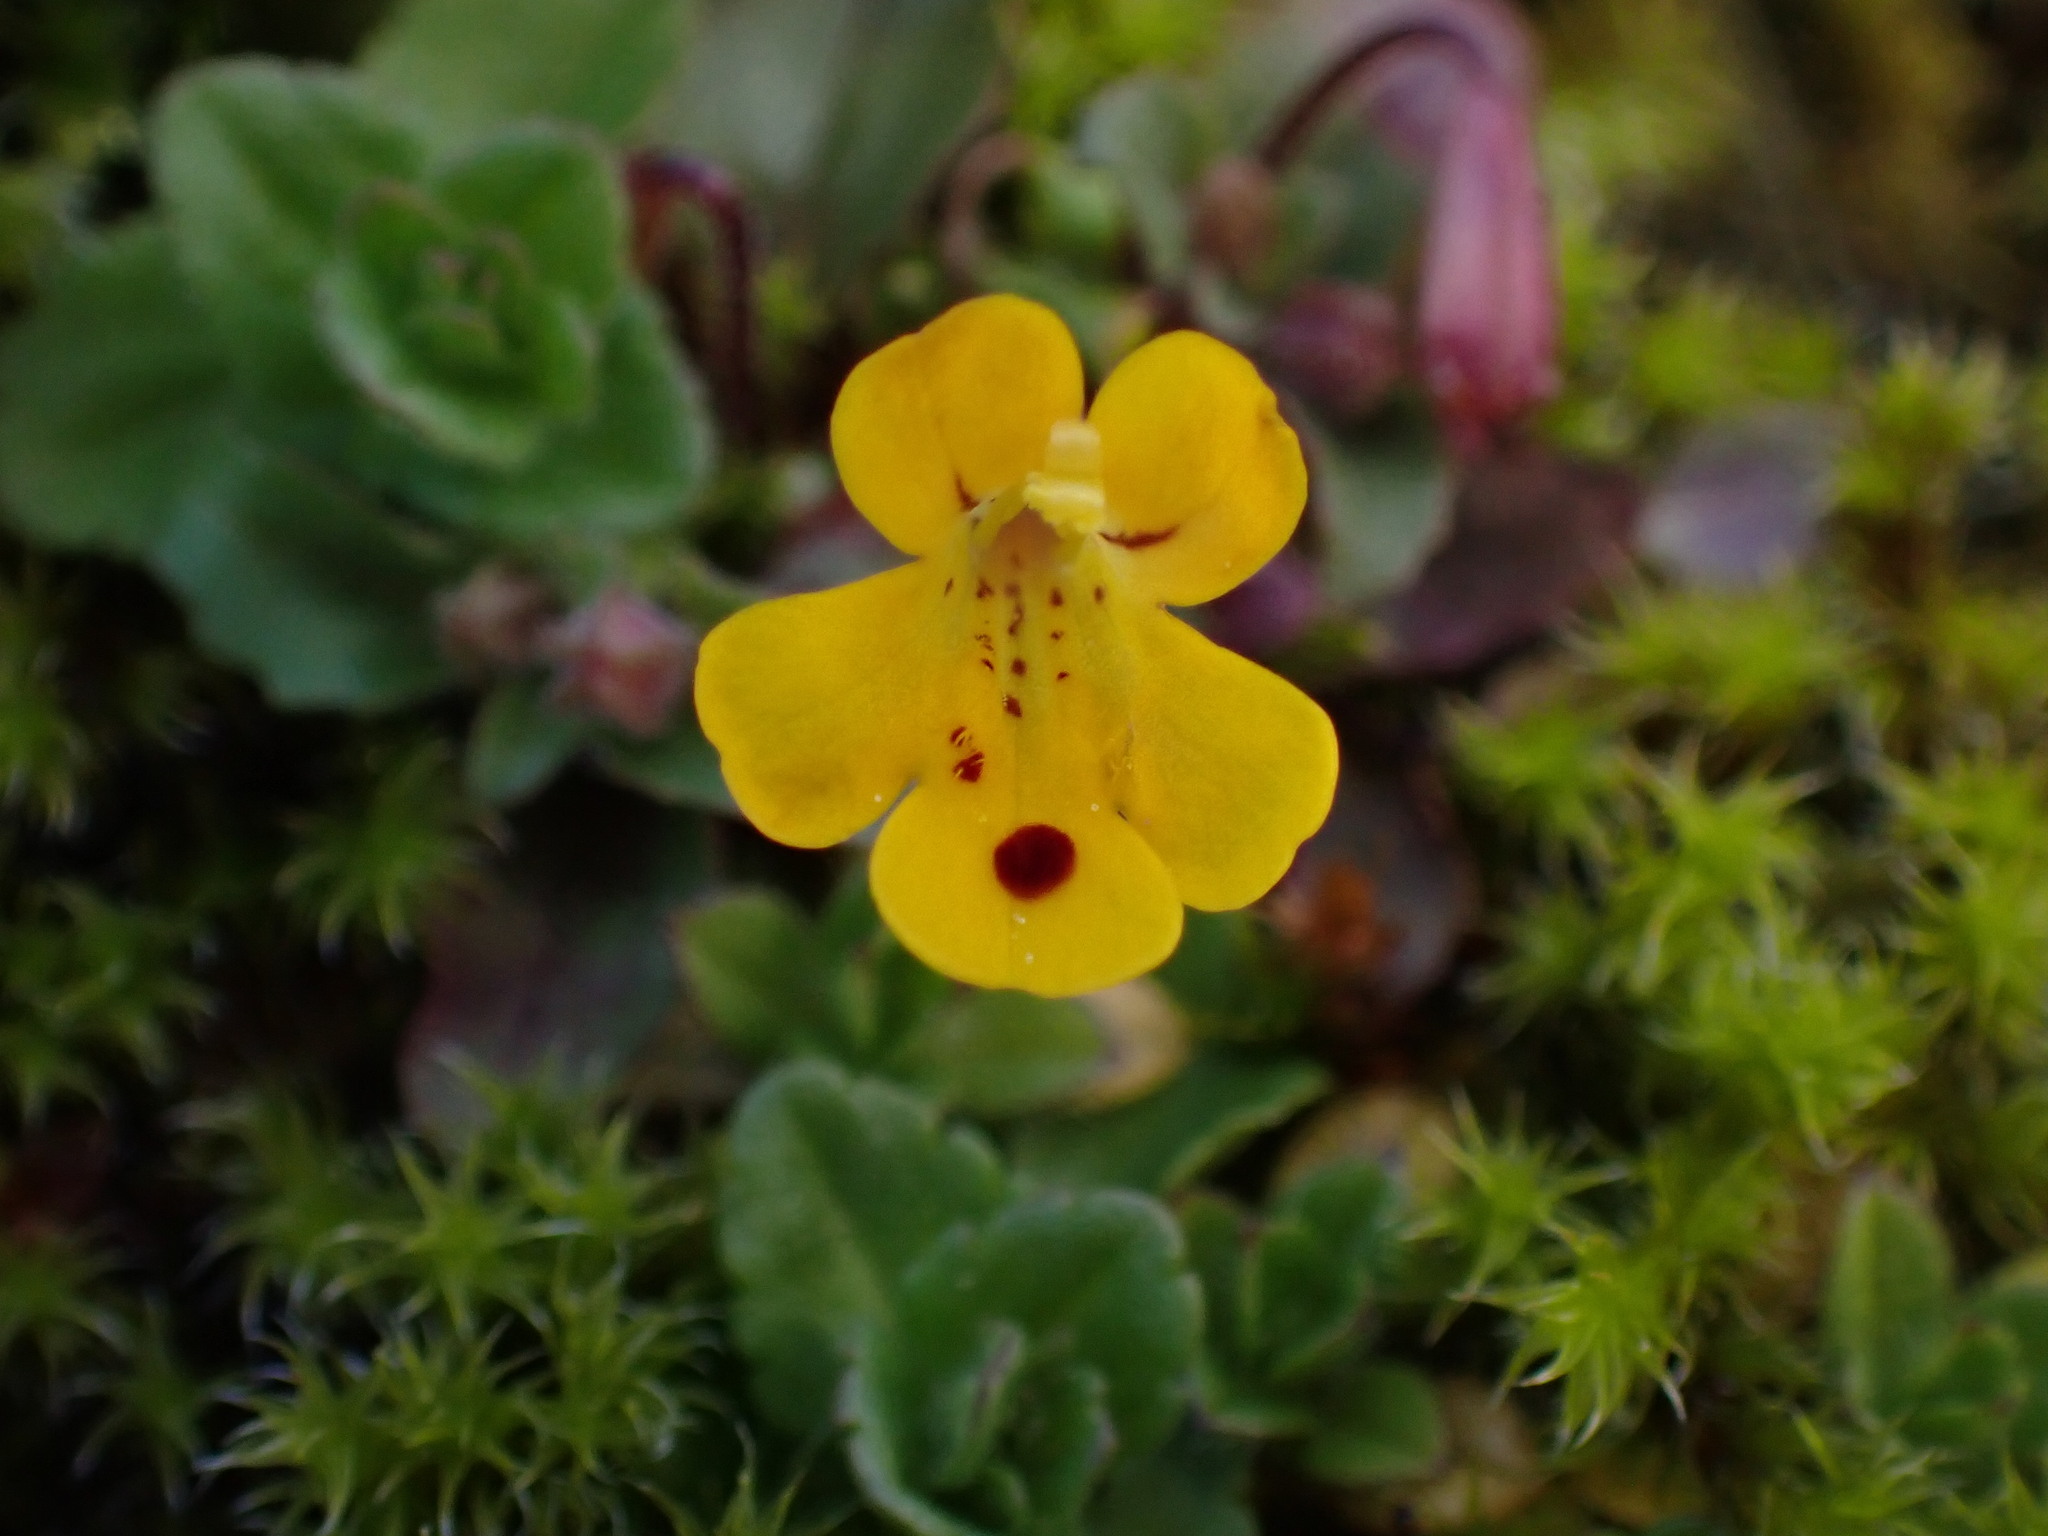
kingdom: Plantae
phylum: Tracheophyta
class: Magnoliopsida
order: Lamiales
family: Phrymaceae
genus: Erythranthe
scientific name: Erythranthe alsinoides
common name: Chickweed monkeyflower
